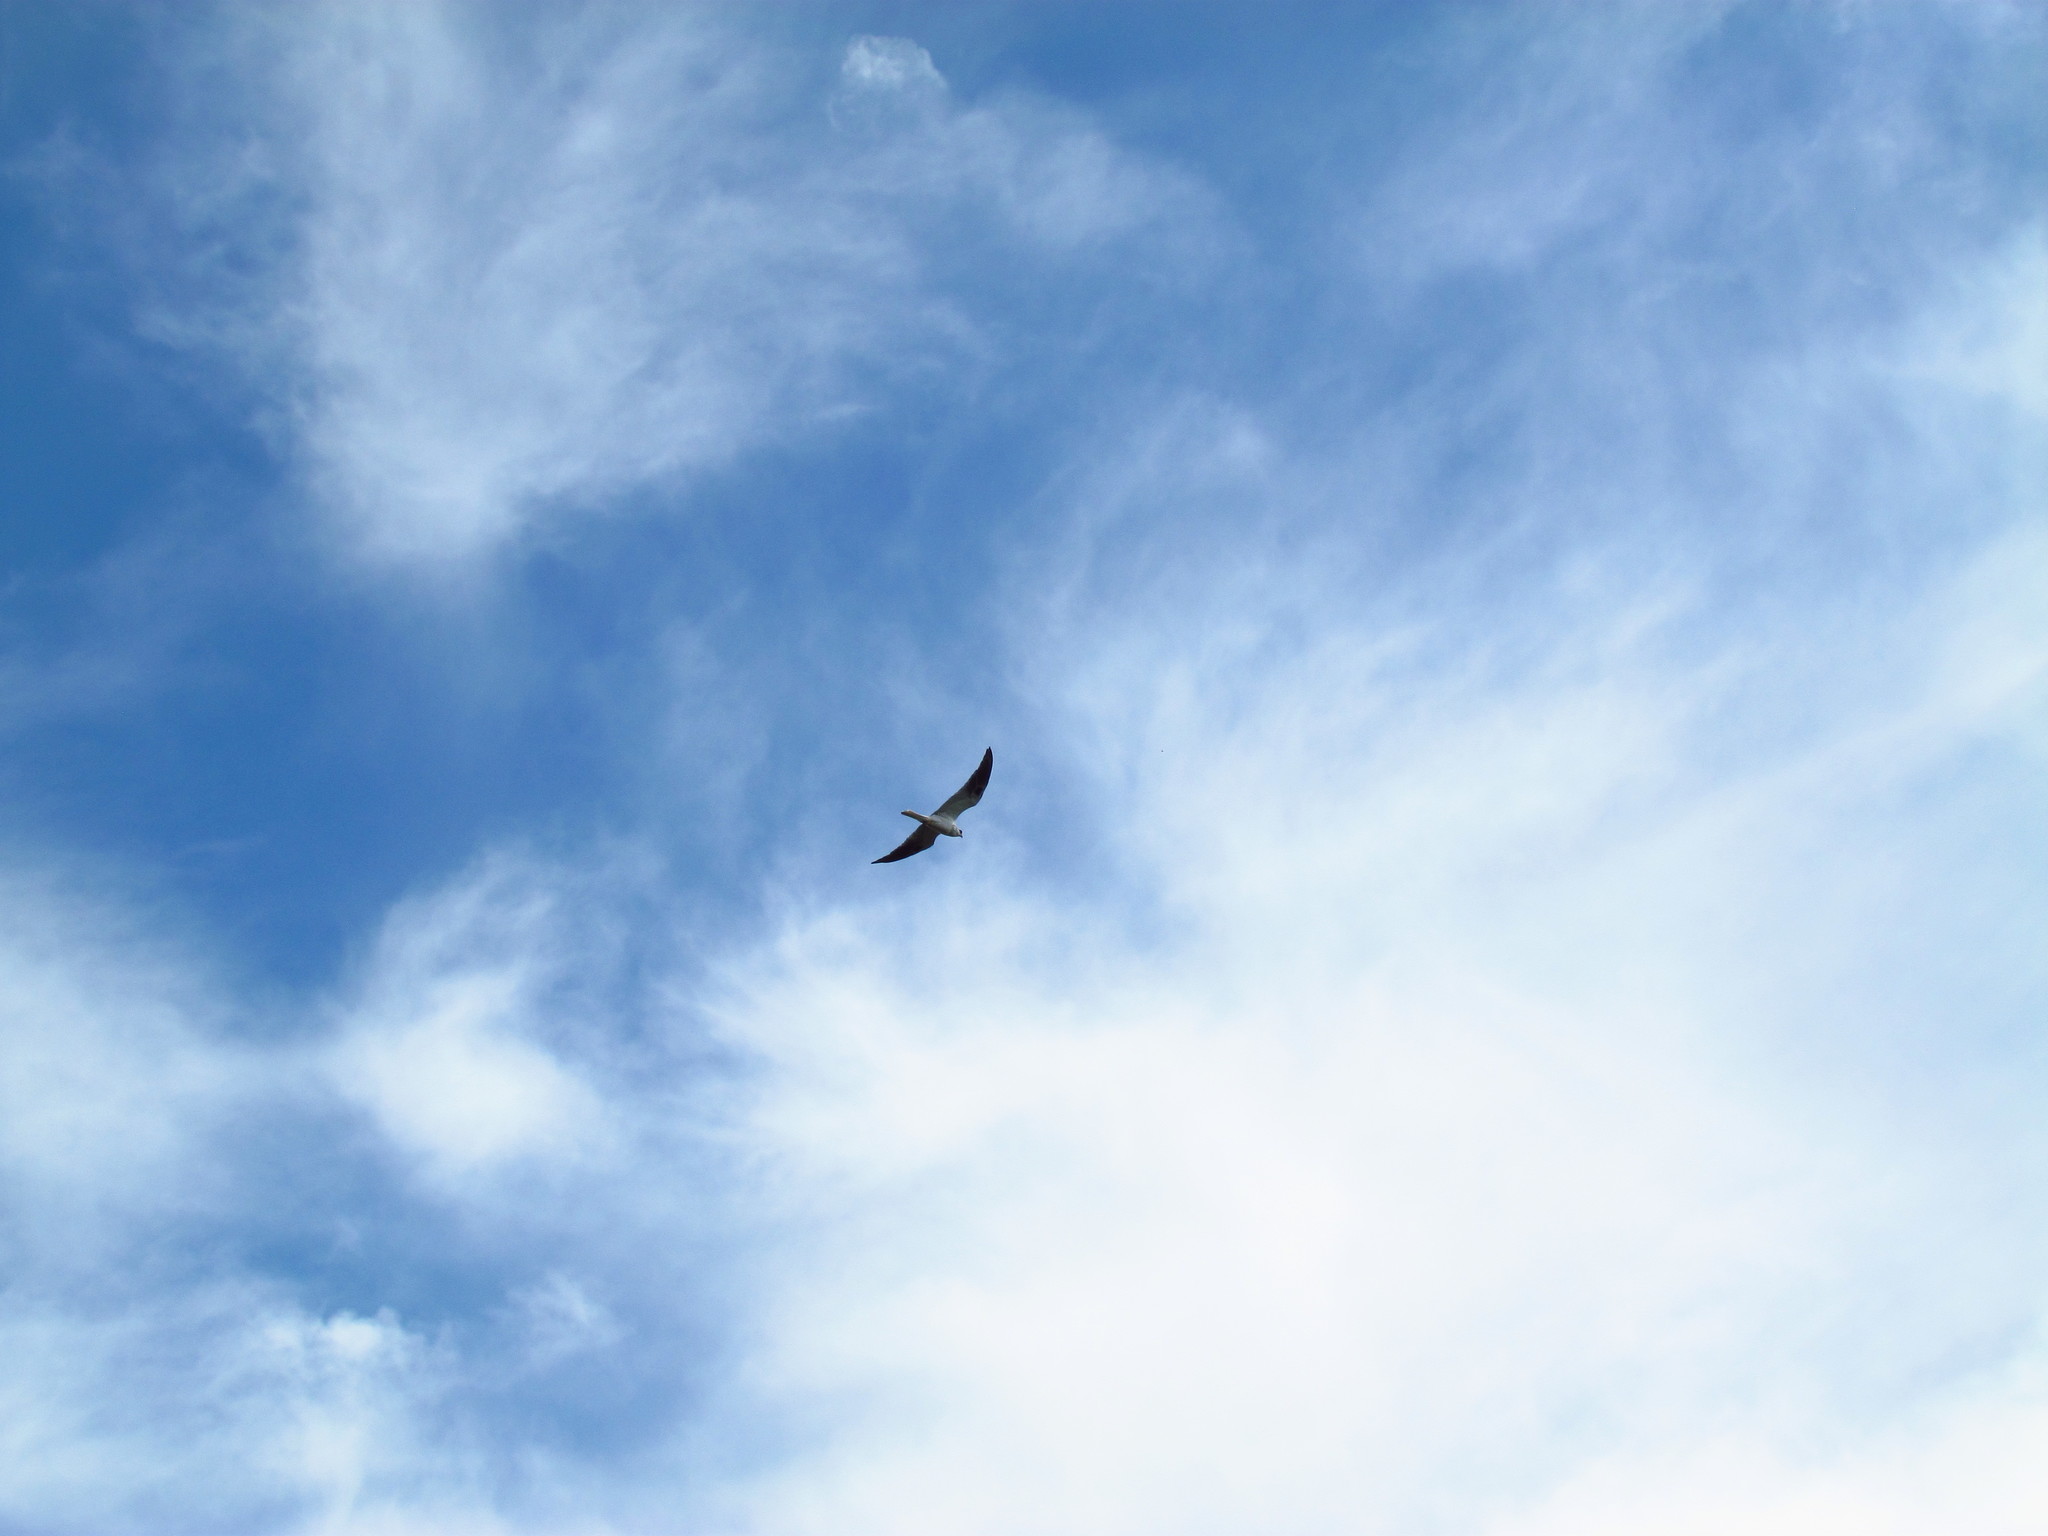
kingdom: Animalia
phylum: Chordata
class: Aves
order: Accipitriformes
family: Accipitridae
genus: Elanus
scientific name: Elanus leucurus
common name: White-tailed kite
